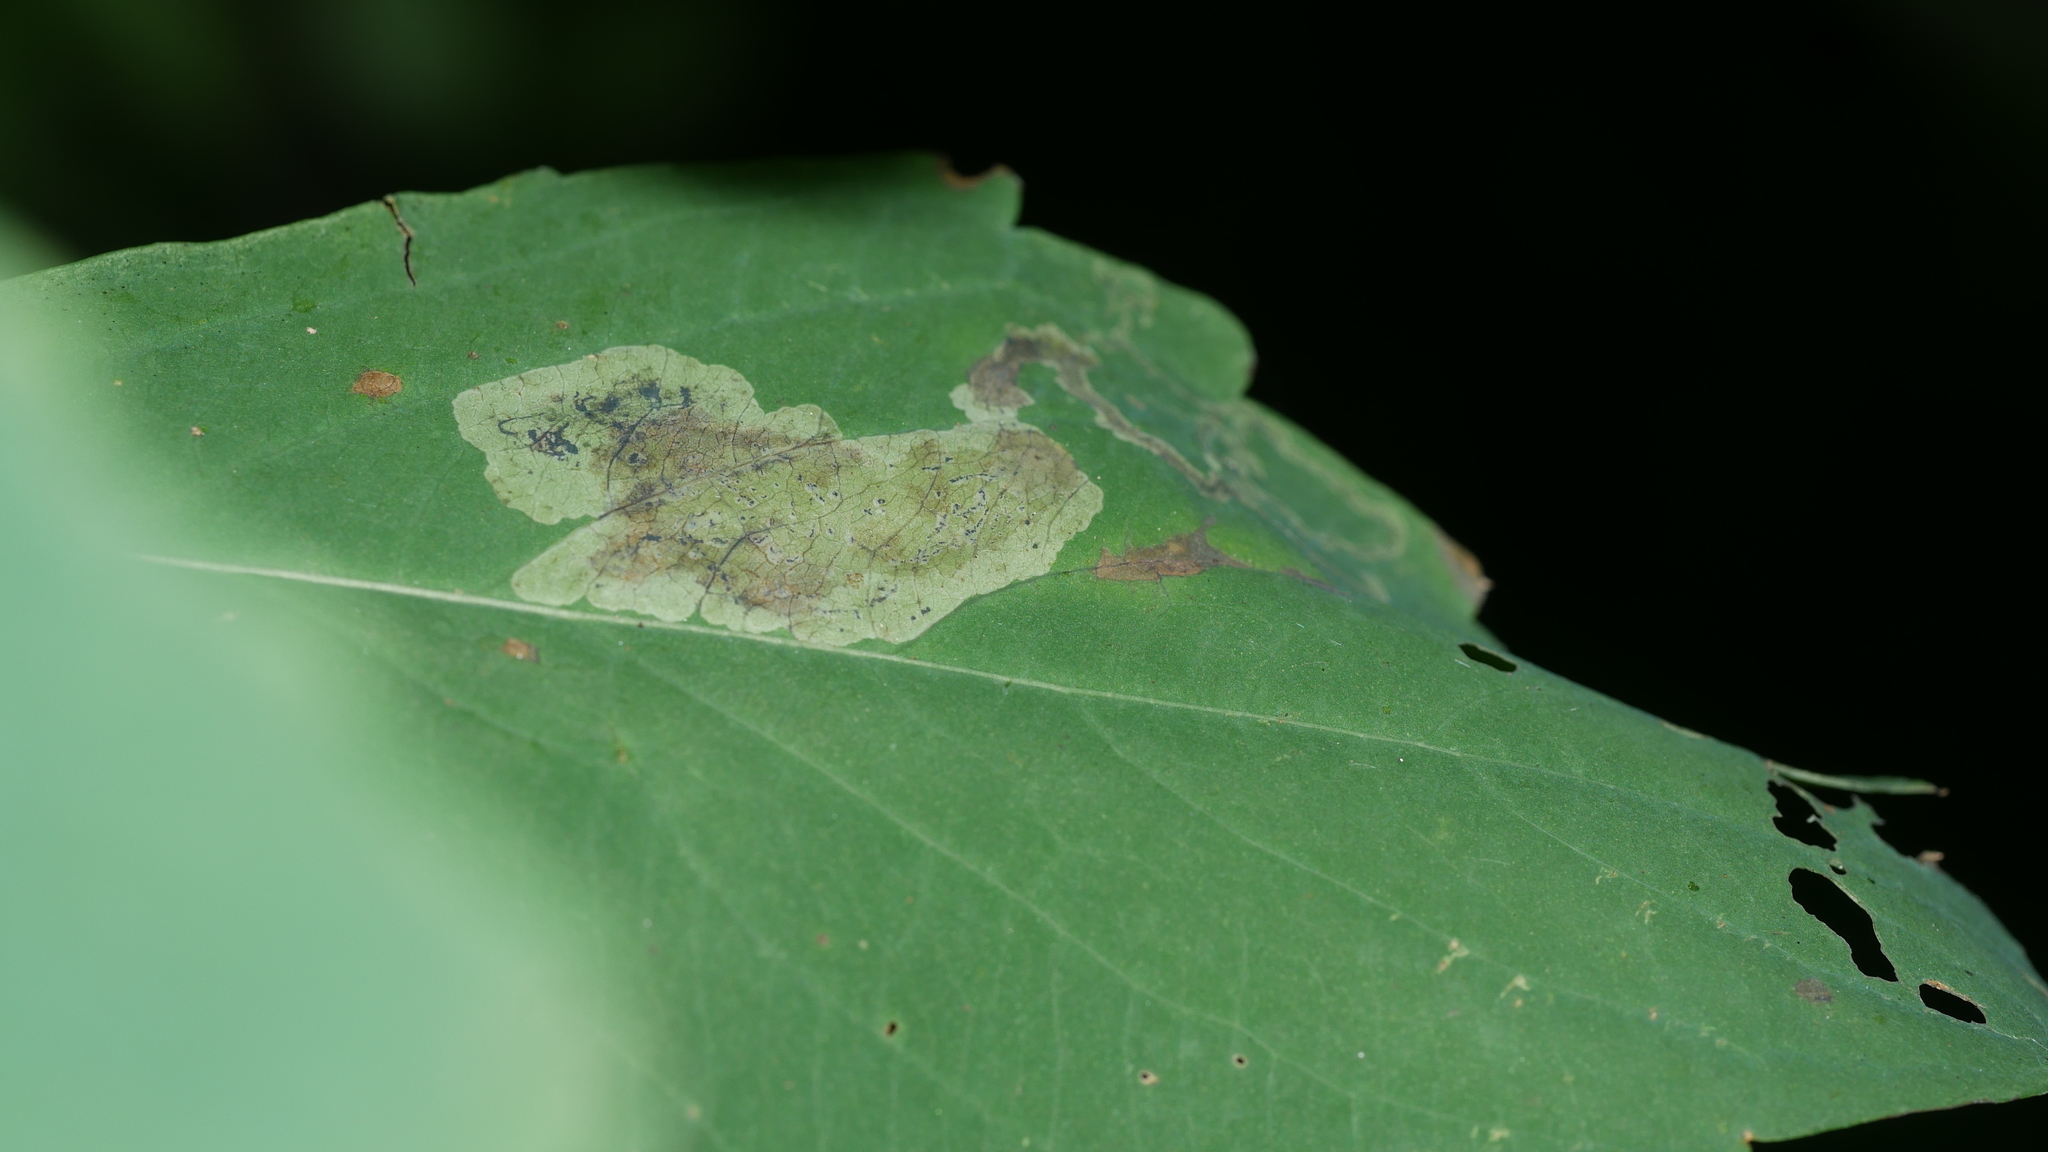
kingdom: Animalia
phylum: Arthropoda
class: Insecta
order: Diptera
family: Agromyzidae
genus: Phytoliriomyza
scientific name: Phytoliriomyza melampyga
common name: Jewelweed leaf-miner fly
